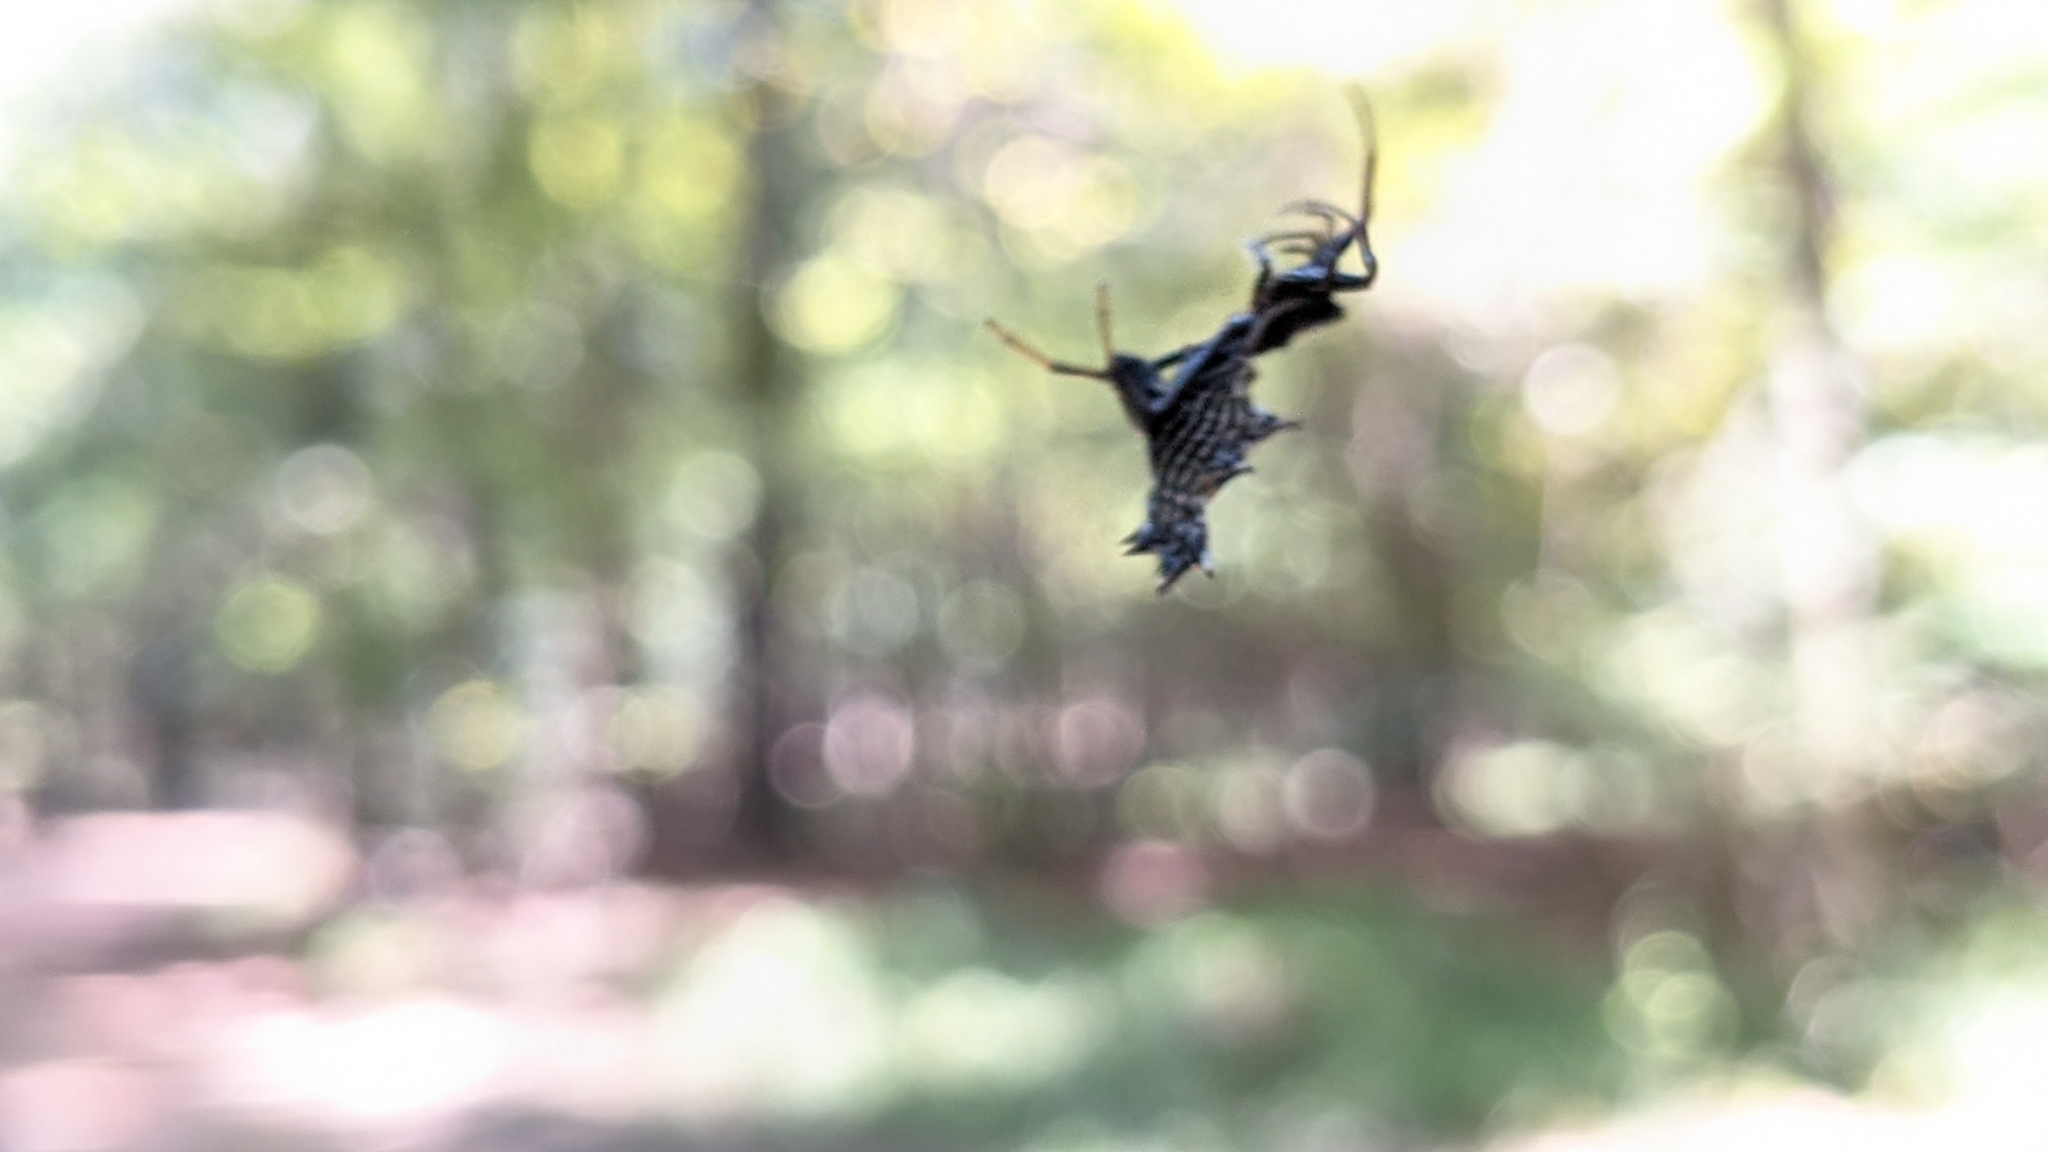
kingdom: Animalia
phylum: Arthropoda
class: Arachnida
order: Araneae
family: Araneidae
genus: Micrathena
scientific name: Micrathena gracilis
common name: Orb weavers
